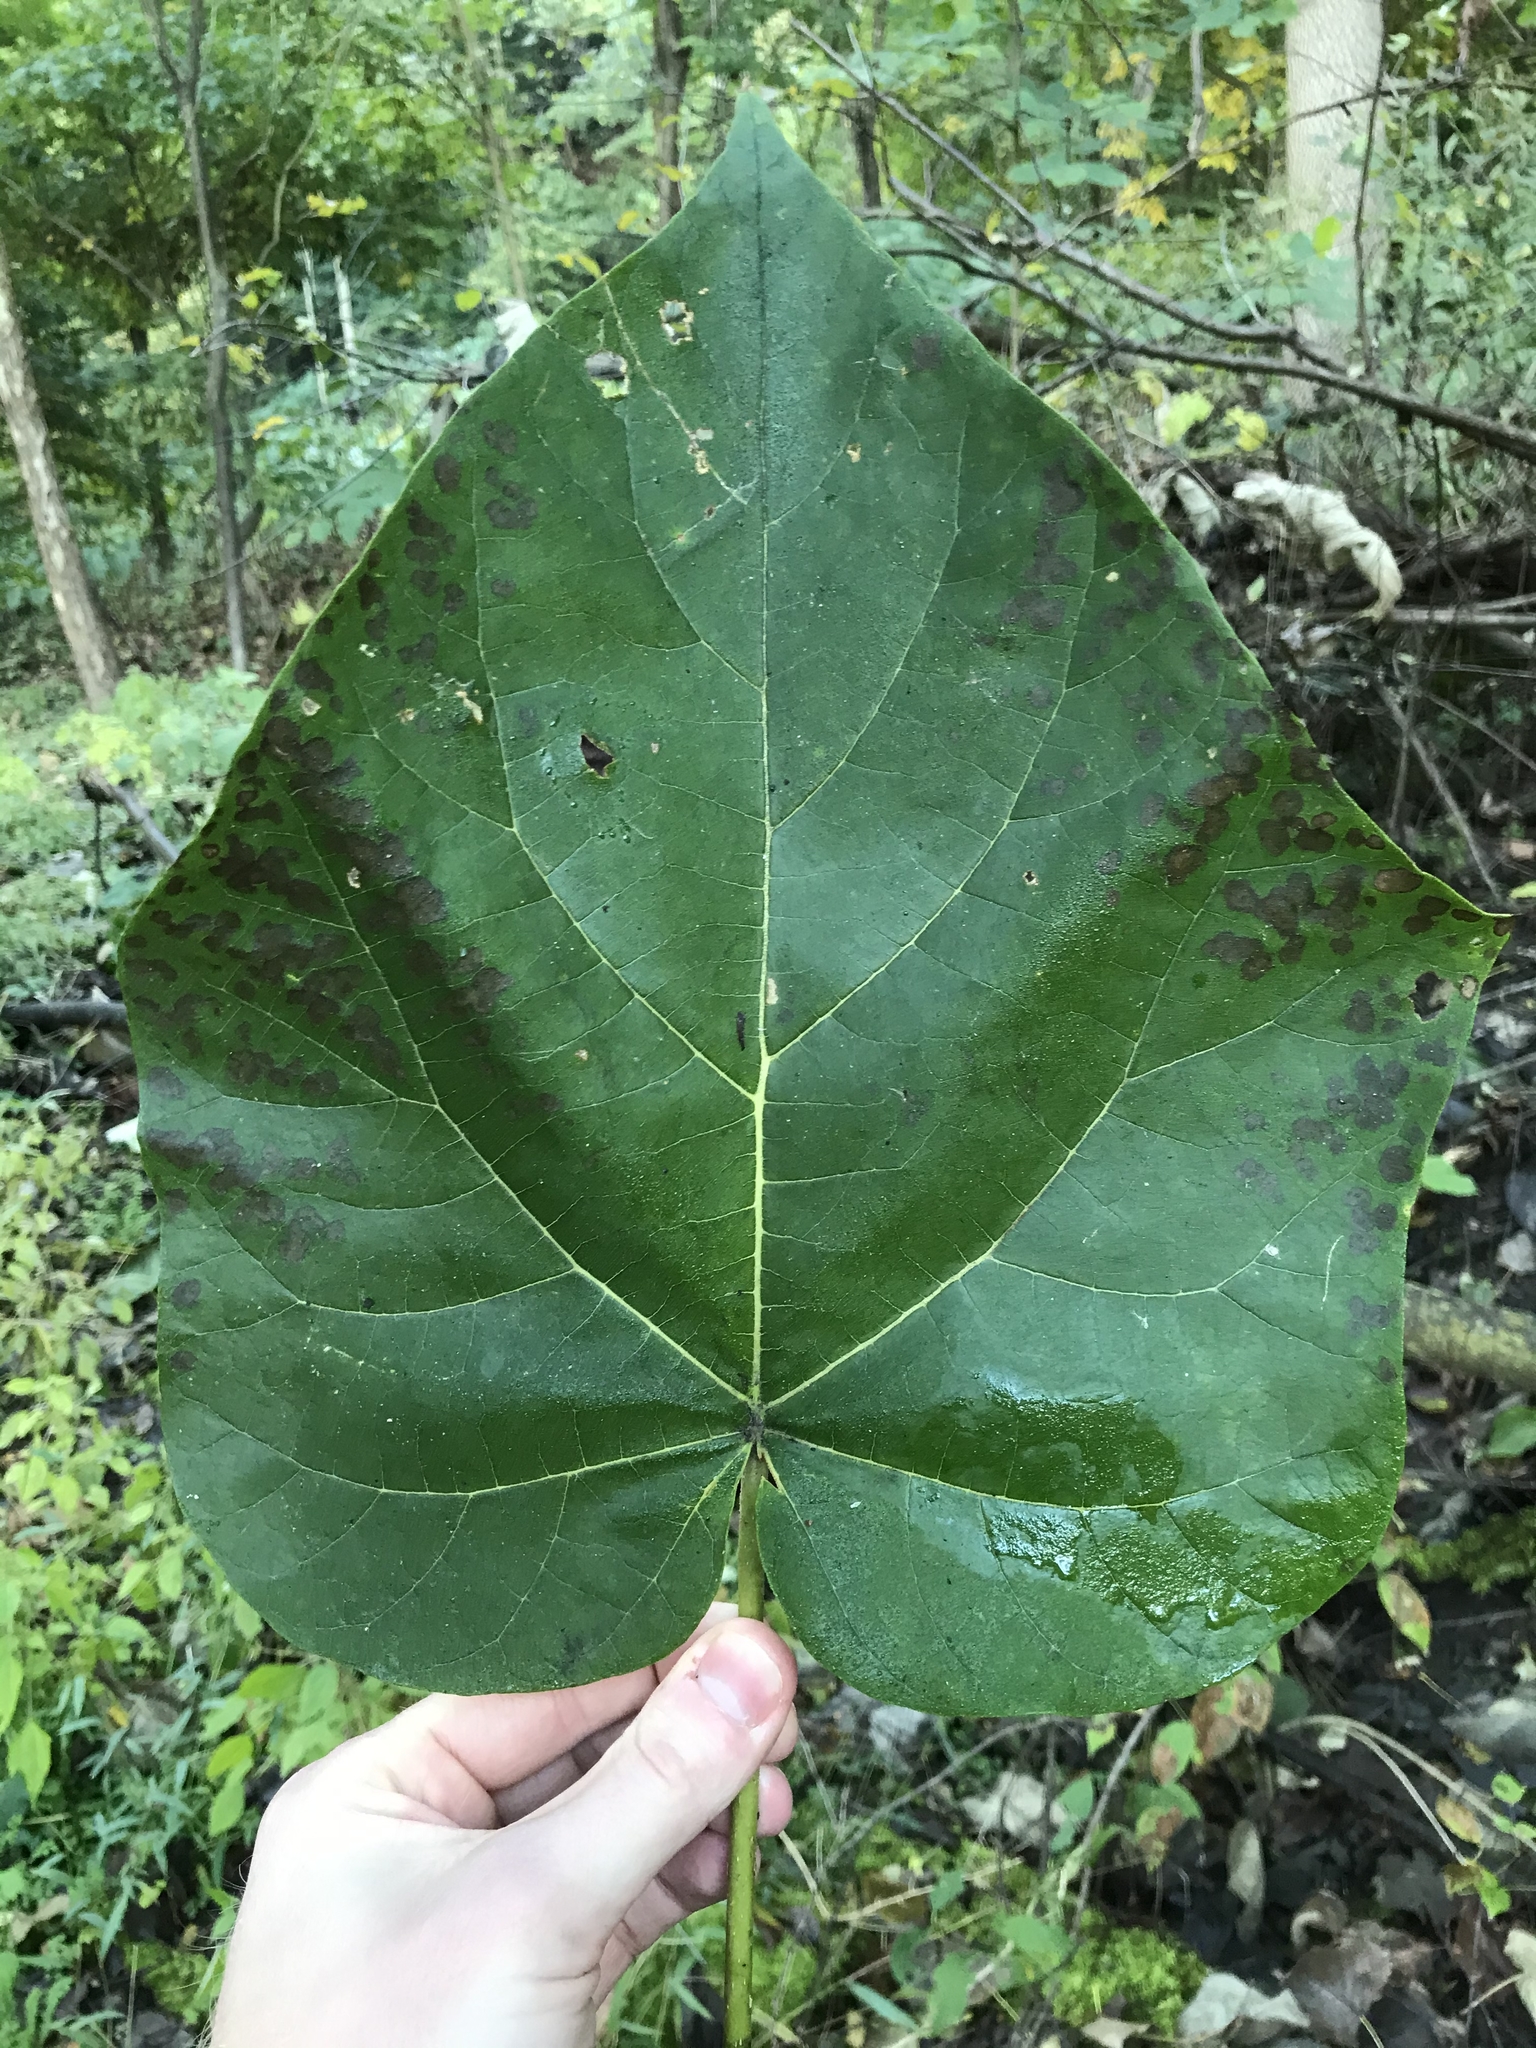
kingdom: Plantae
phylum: Tracheophyta
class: Magnoliopsida
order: Lamiales
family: Paulowniaceae
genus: Paulownia
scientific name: Paulownia tomentosa
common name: Foxglove-tree
